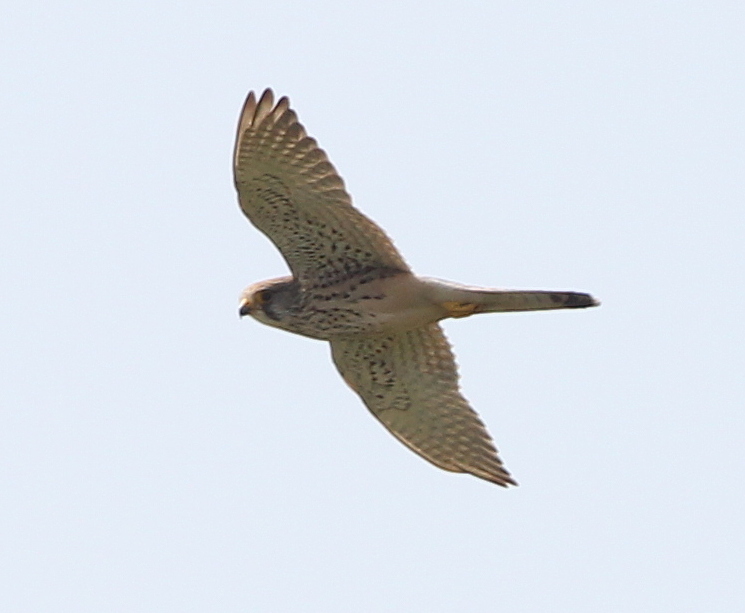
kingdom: Animalia
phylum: Chordata
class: Aves
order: Falconiformes
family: Falconidae
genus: Falco
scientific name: Falco tinnunculus
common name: Common kestrel
